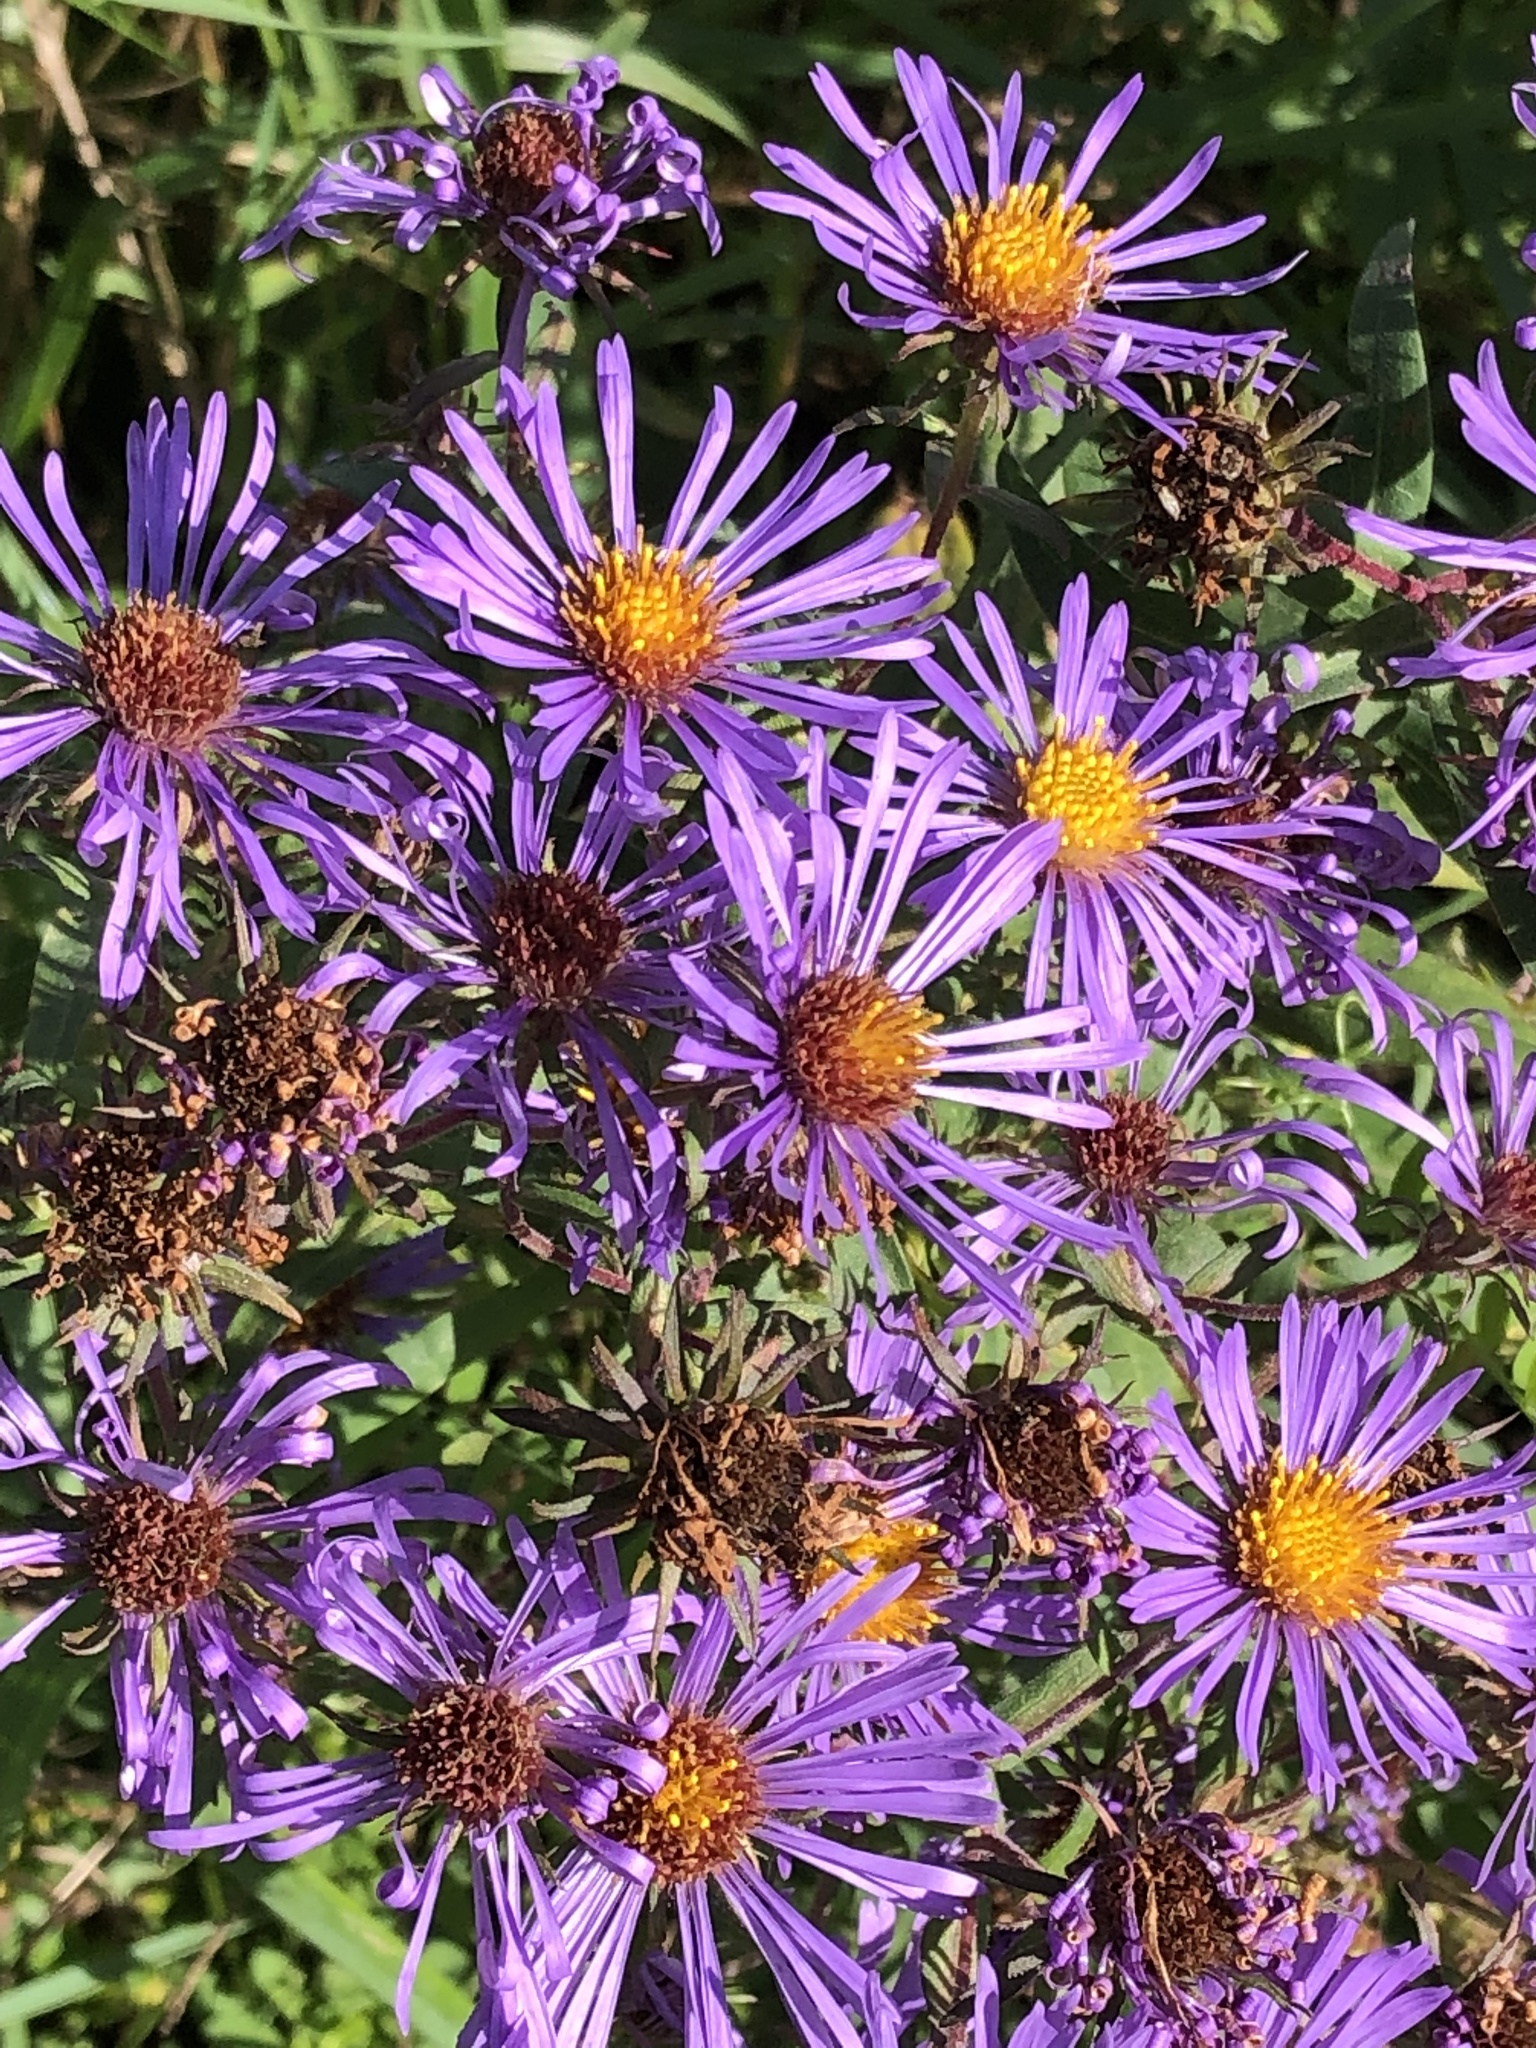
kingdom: Plantae
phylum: Tracheophyta
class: Magnoliopsida
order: Asterales
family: Asteraceae
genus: Symphyotrichum
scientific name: Symphyotrichum novae-angliae
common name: Michaelmas daisy
